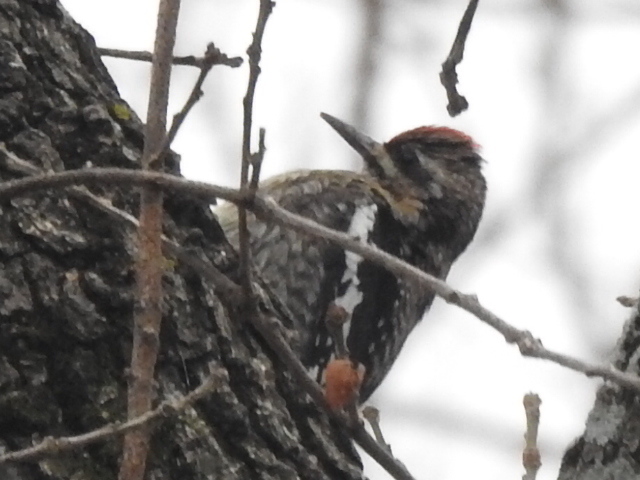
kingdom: Animalia
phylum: Chordata
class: Aves
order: Piciformes
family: Picidae
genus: Sphyrapicus
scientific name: Sphyrapicus varius
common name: Yellow-bellied sapsucker
